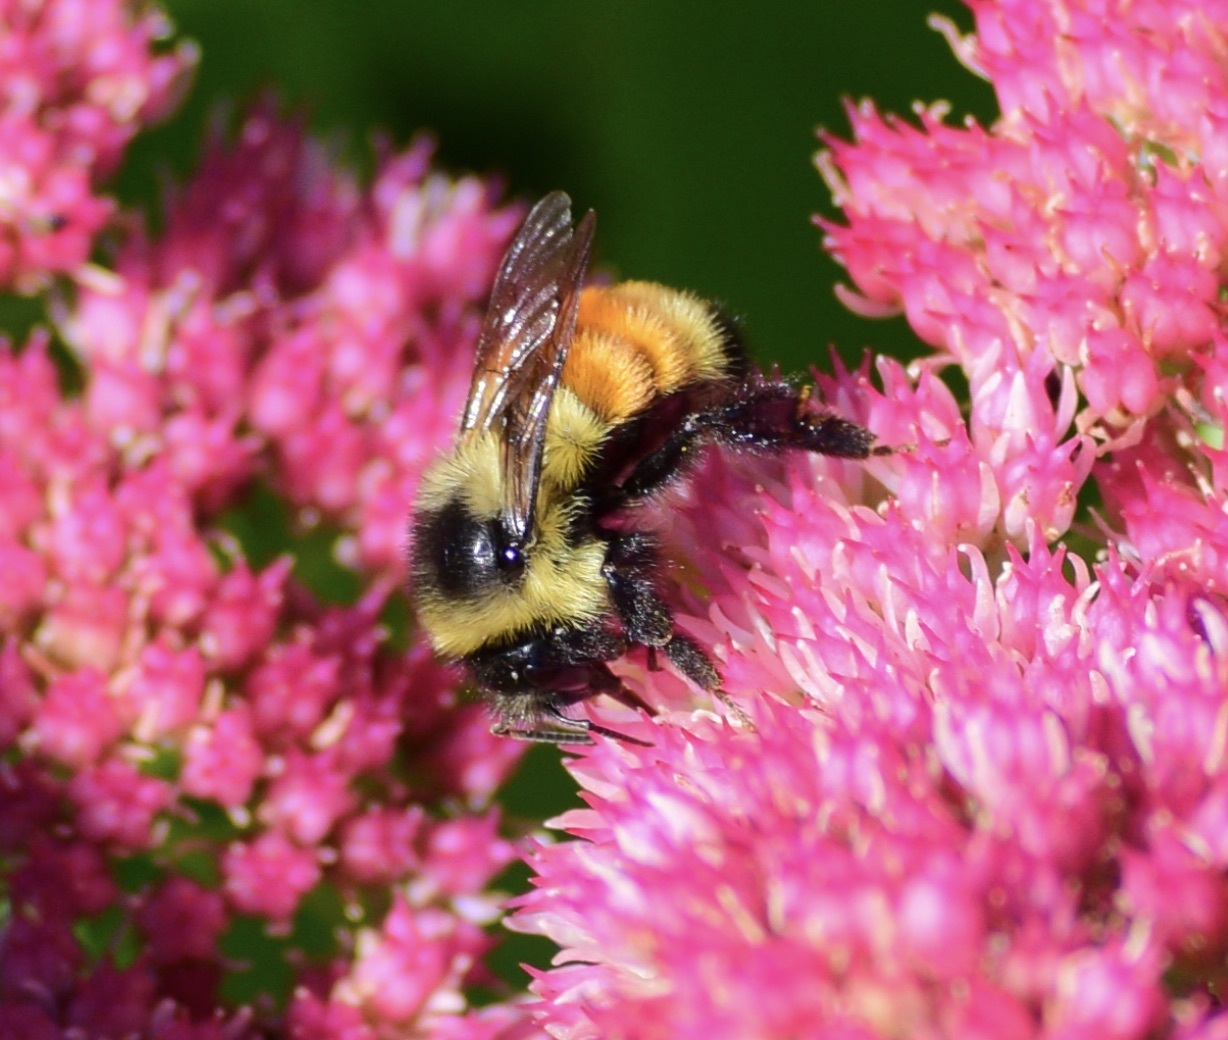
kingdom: Animalia
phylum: Arthropoda
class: Insecta
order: Hymenoptera
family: Apidae
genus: Bombus
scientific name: Bombus ternarius
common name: Tri-colored bumble bee
